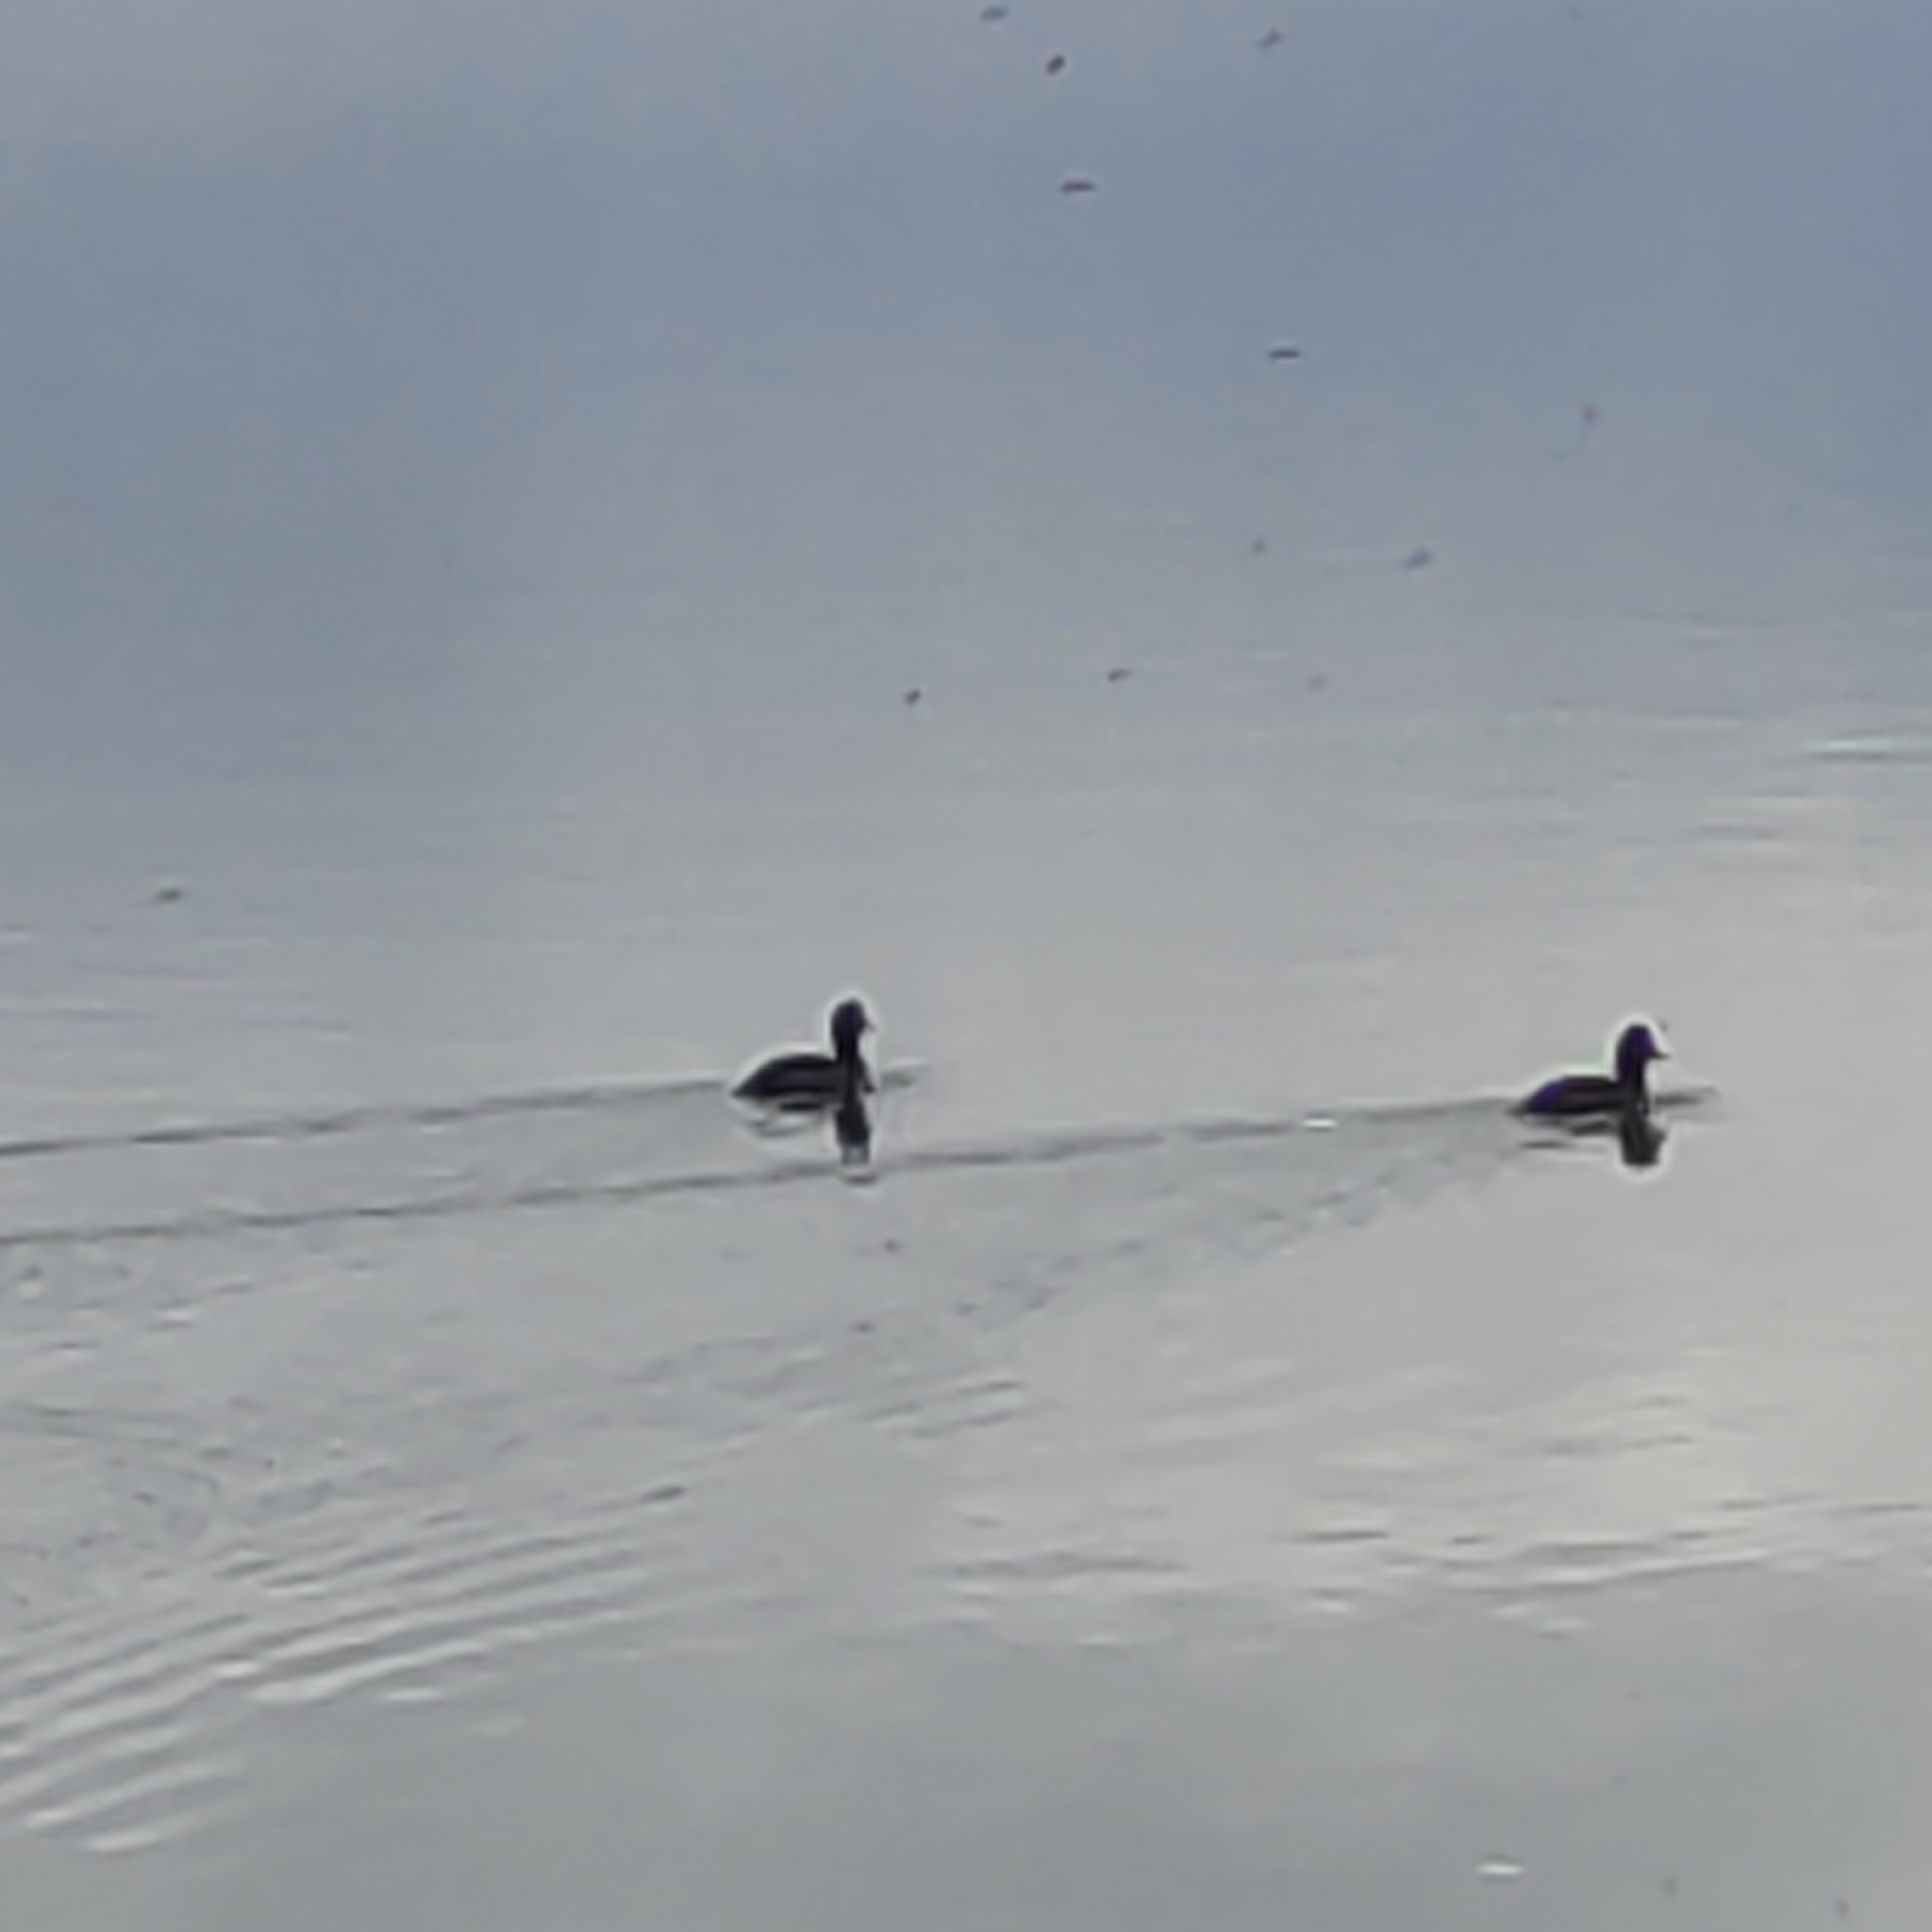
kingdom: Animalia
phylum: Chordata
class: Aves
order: Anseriformes
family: Anatidae
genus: Aythya
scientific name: Aythya novaeseelandiae
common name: New zealand scaup
